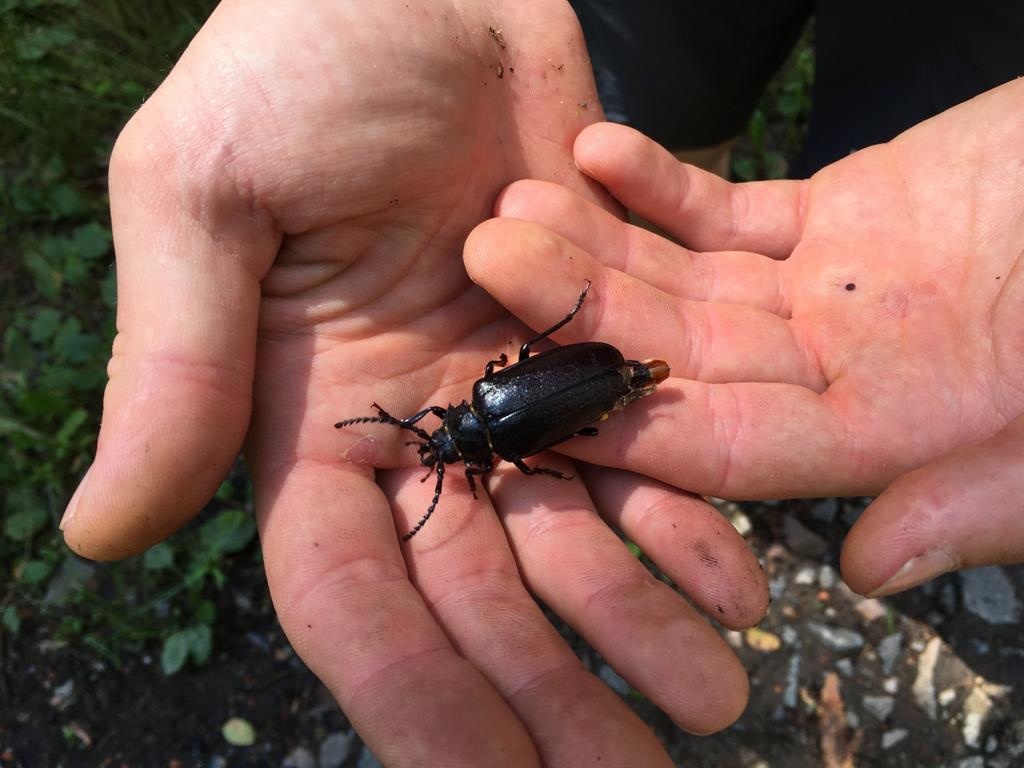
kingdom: Animalia
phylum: Arthropoda
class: Insecta
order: Coleoptera
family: Cerambycidae
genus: Prionus
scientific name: Prionus coriarius
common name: Tanner beetle
